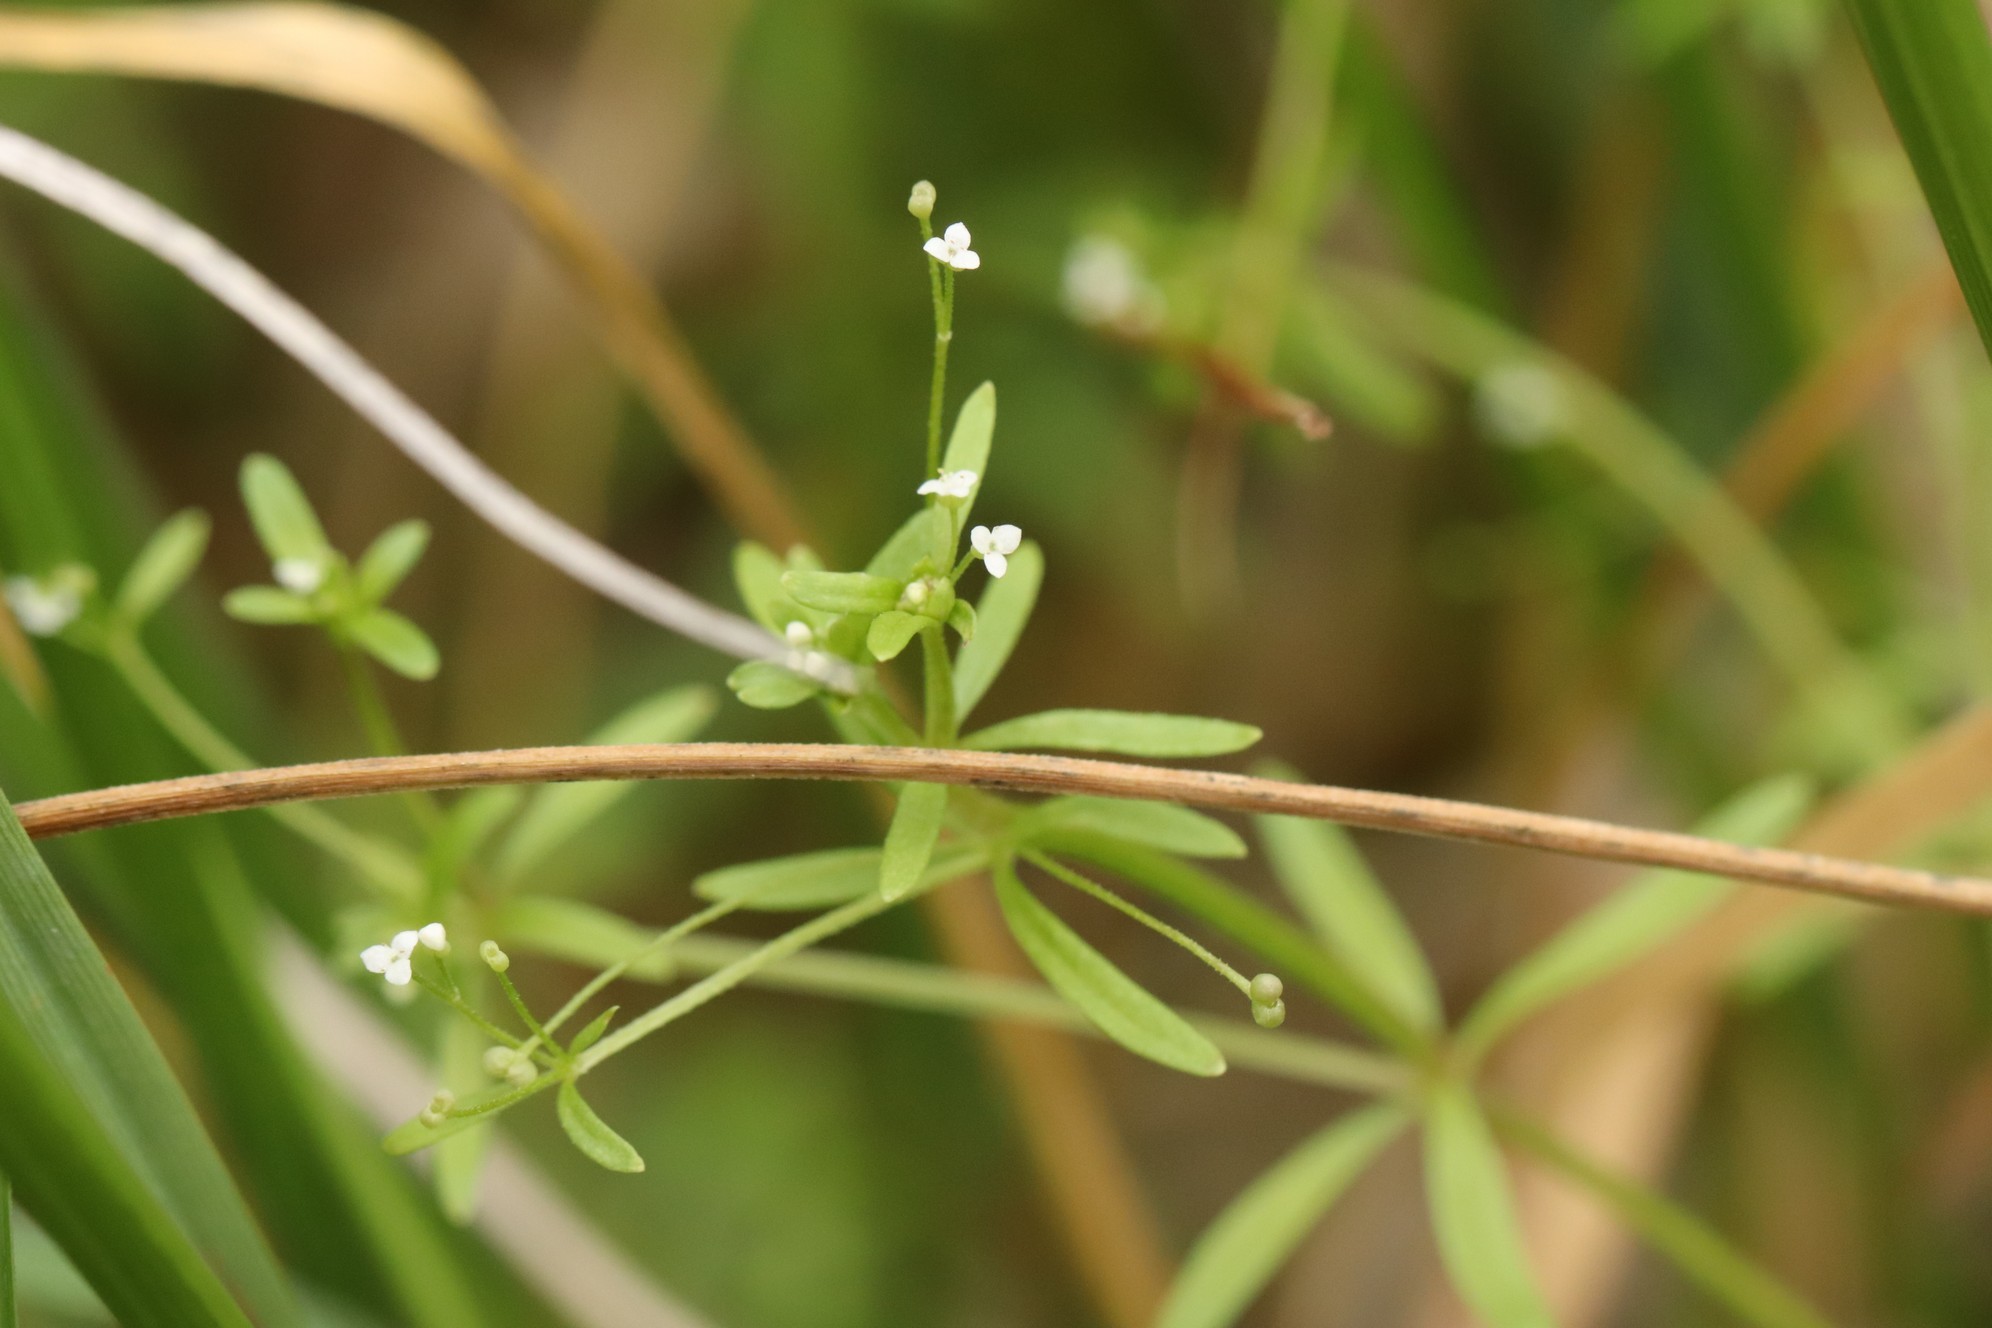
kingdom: Plantae
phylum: Tracheophyta
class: Magnoliopsida
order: Gentianales
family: Rubiaceae
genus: Galium
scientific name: Galium trifidum
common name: Small bedstraw
